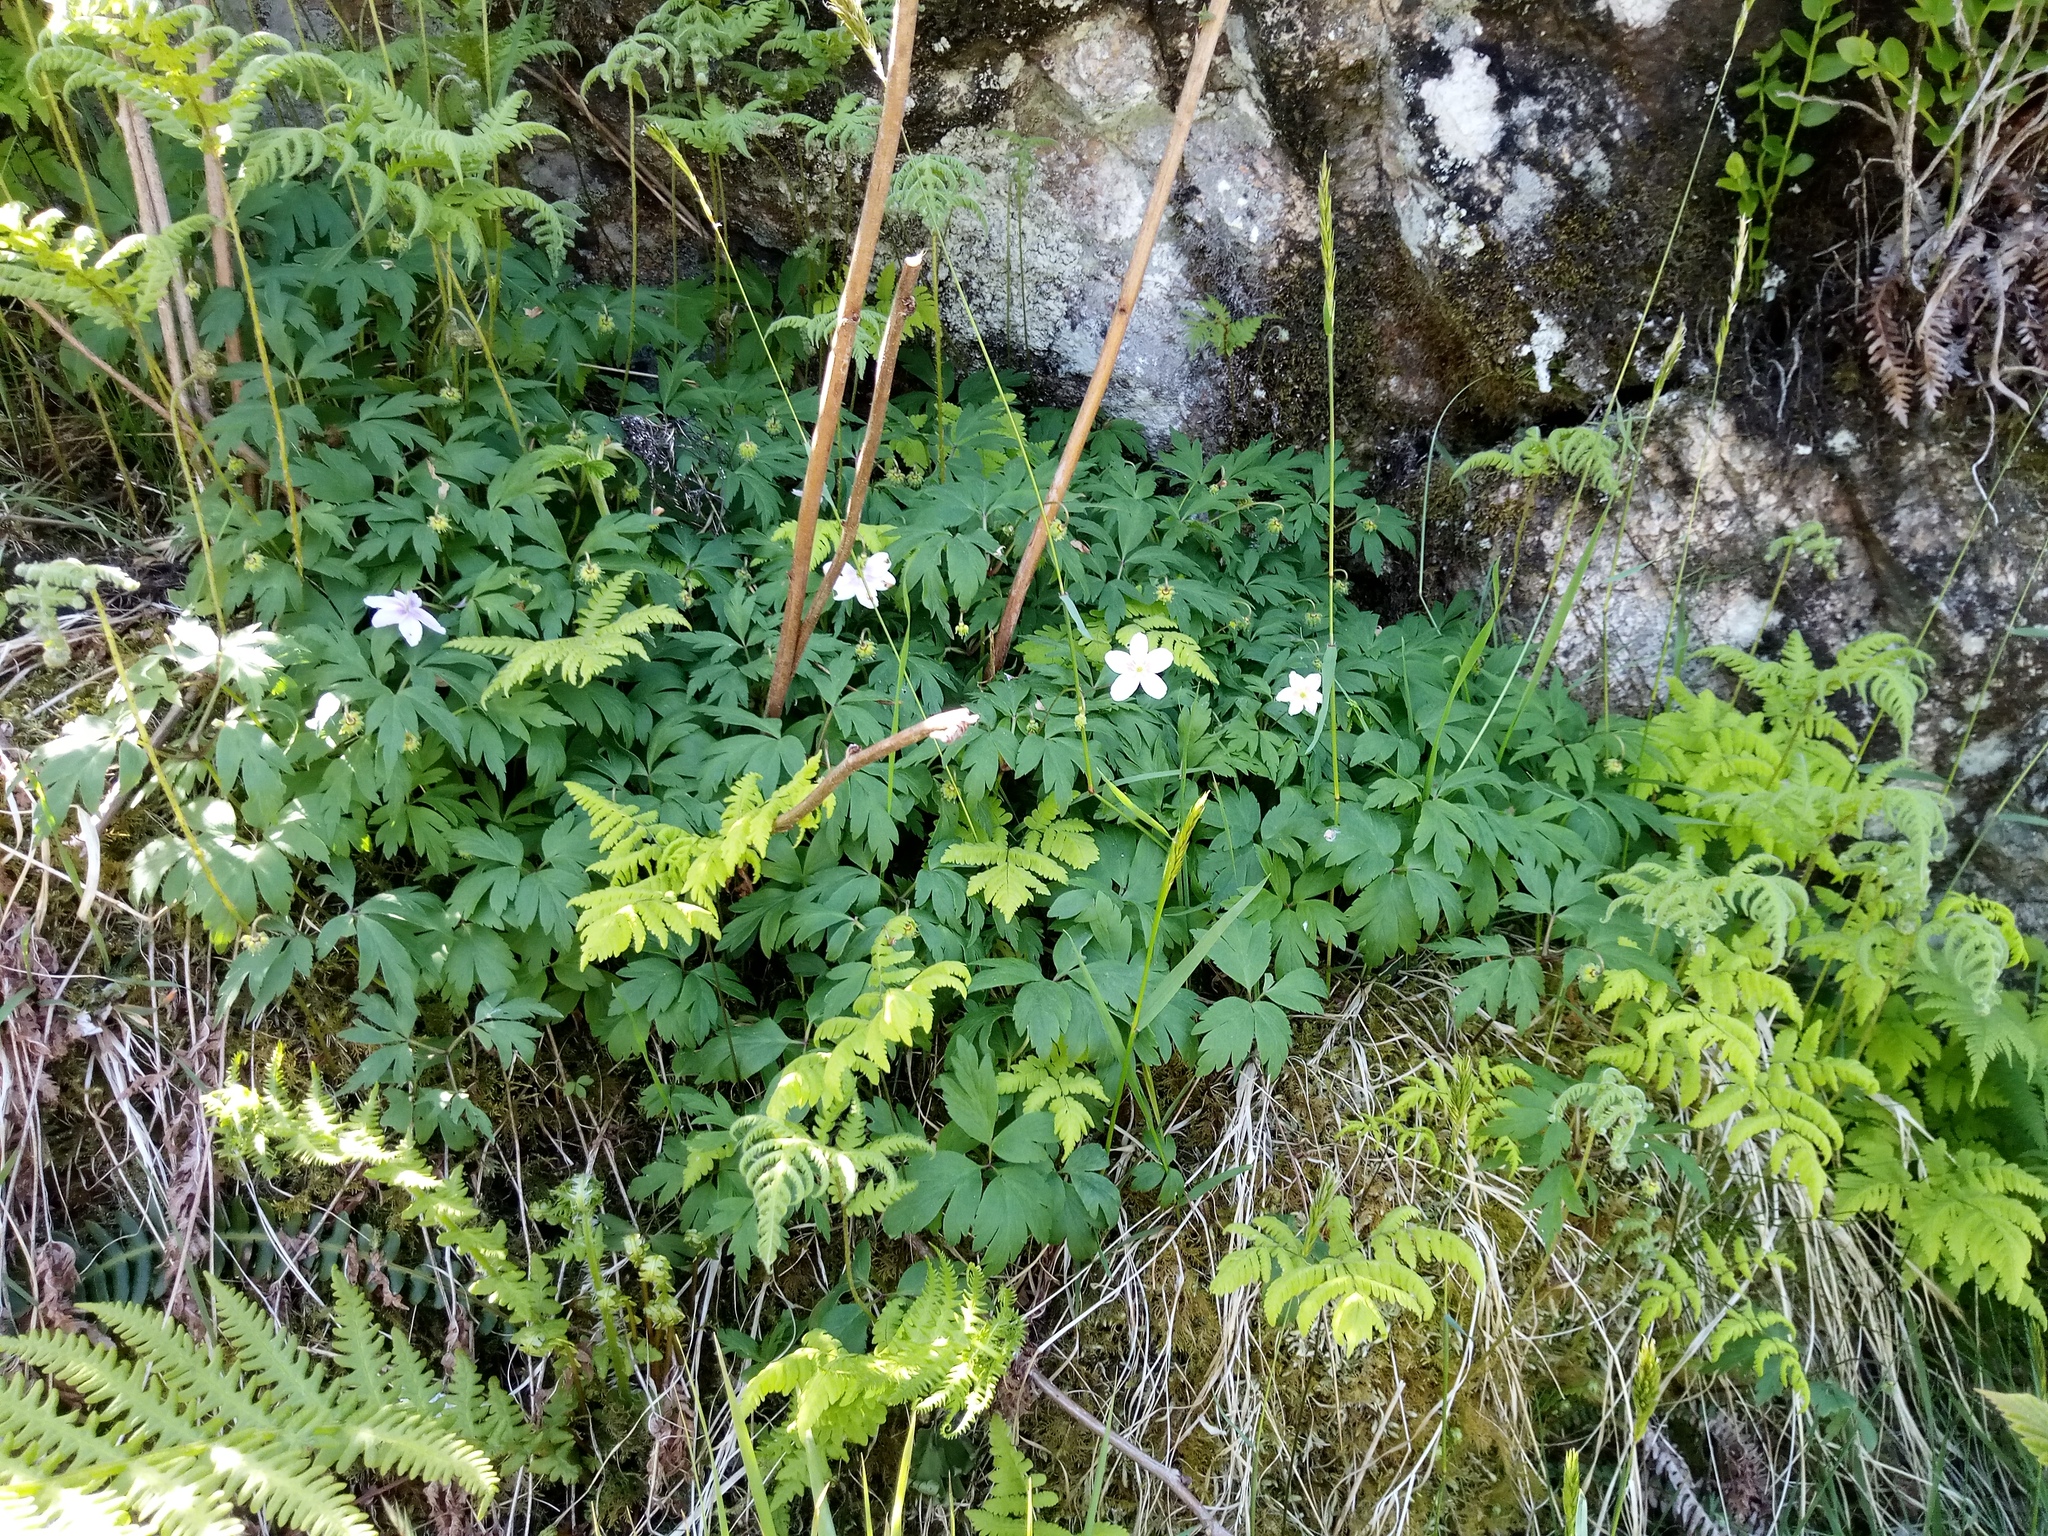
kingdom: Plantae
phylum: Tracheophyta
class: Magnoliopsida
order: Ranunculales
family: Ranunculaceae
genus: Anemone
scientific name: Anemone nemorosa
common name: Wood anemone
